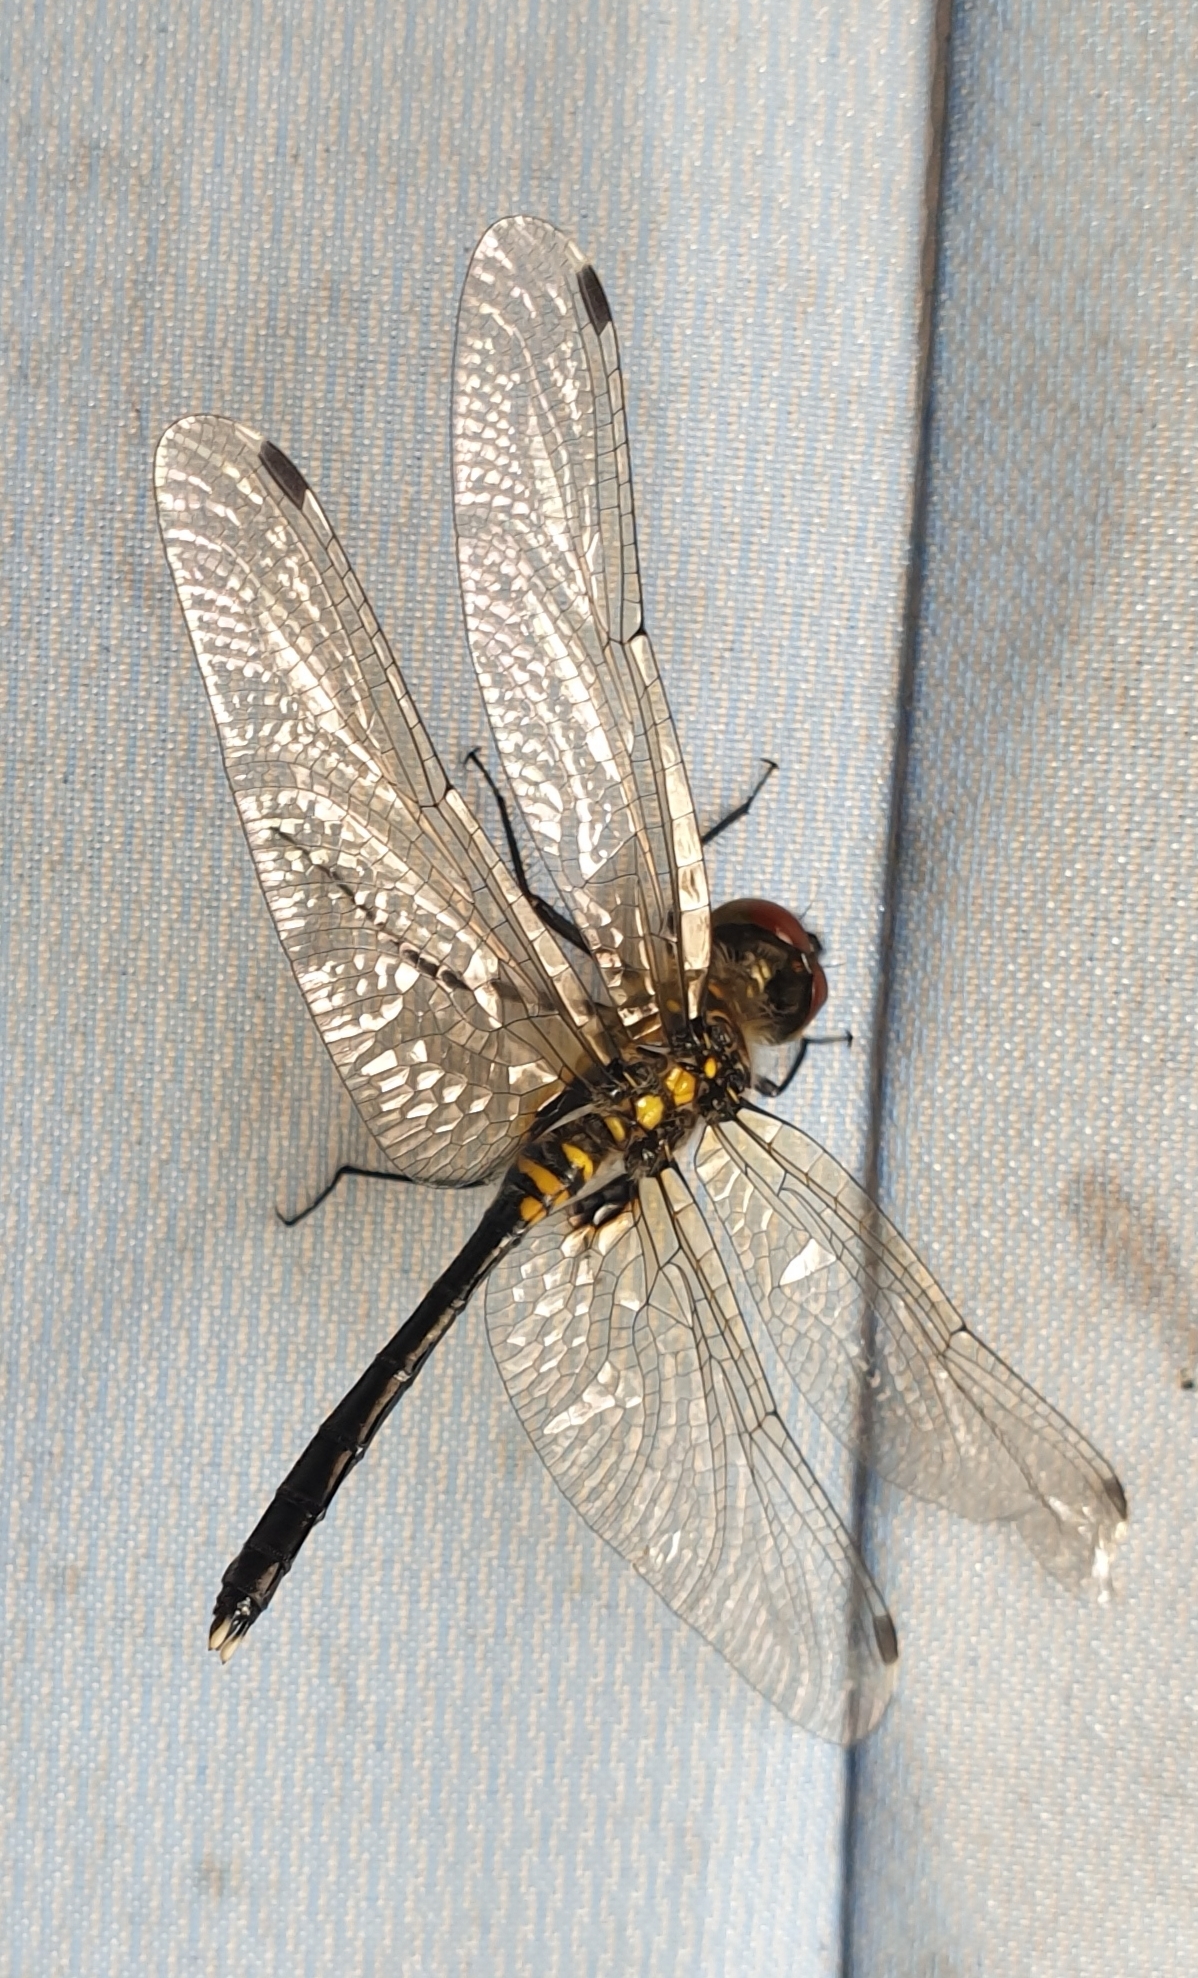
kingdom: Animalia
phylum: Arthropoda
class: Insecta
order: Odonata
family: Libellulidae
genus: Leucorrhinia
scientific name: Leucorrhinia albifrons
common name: Dark whiteface
